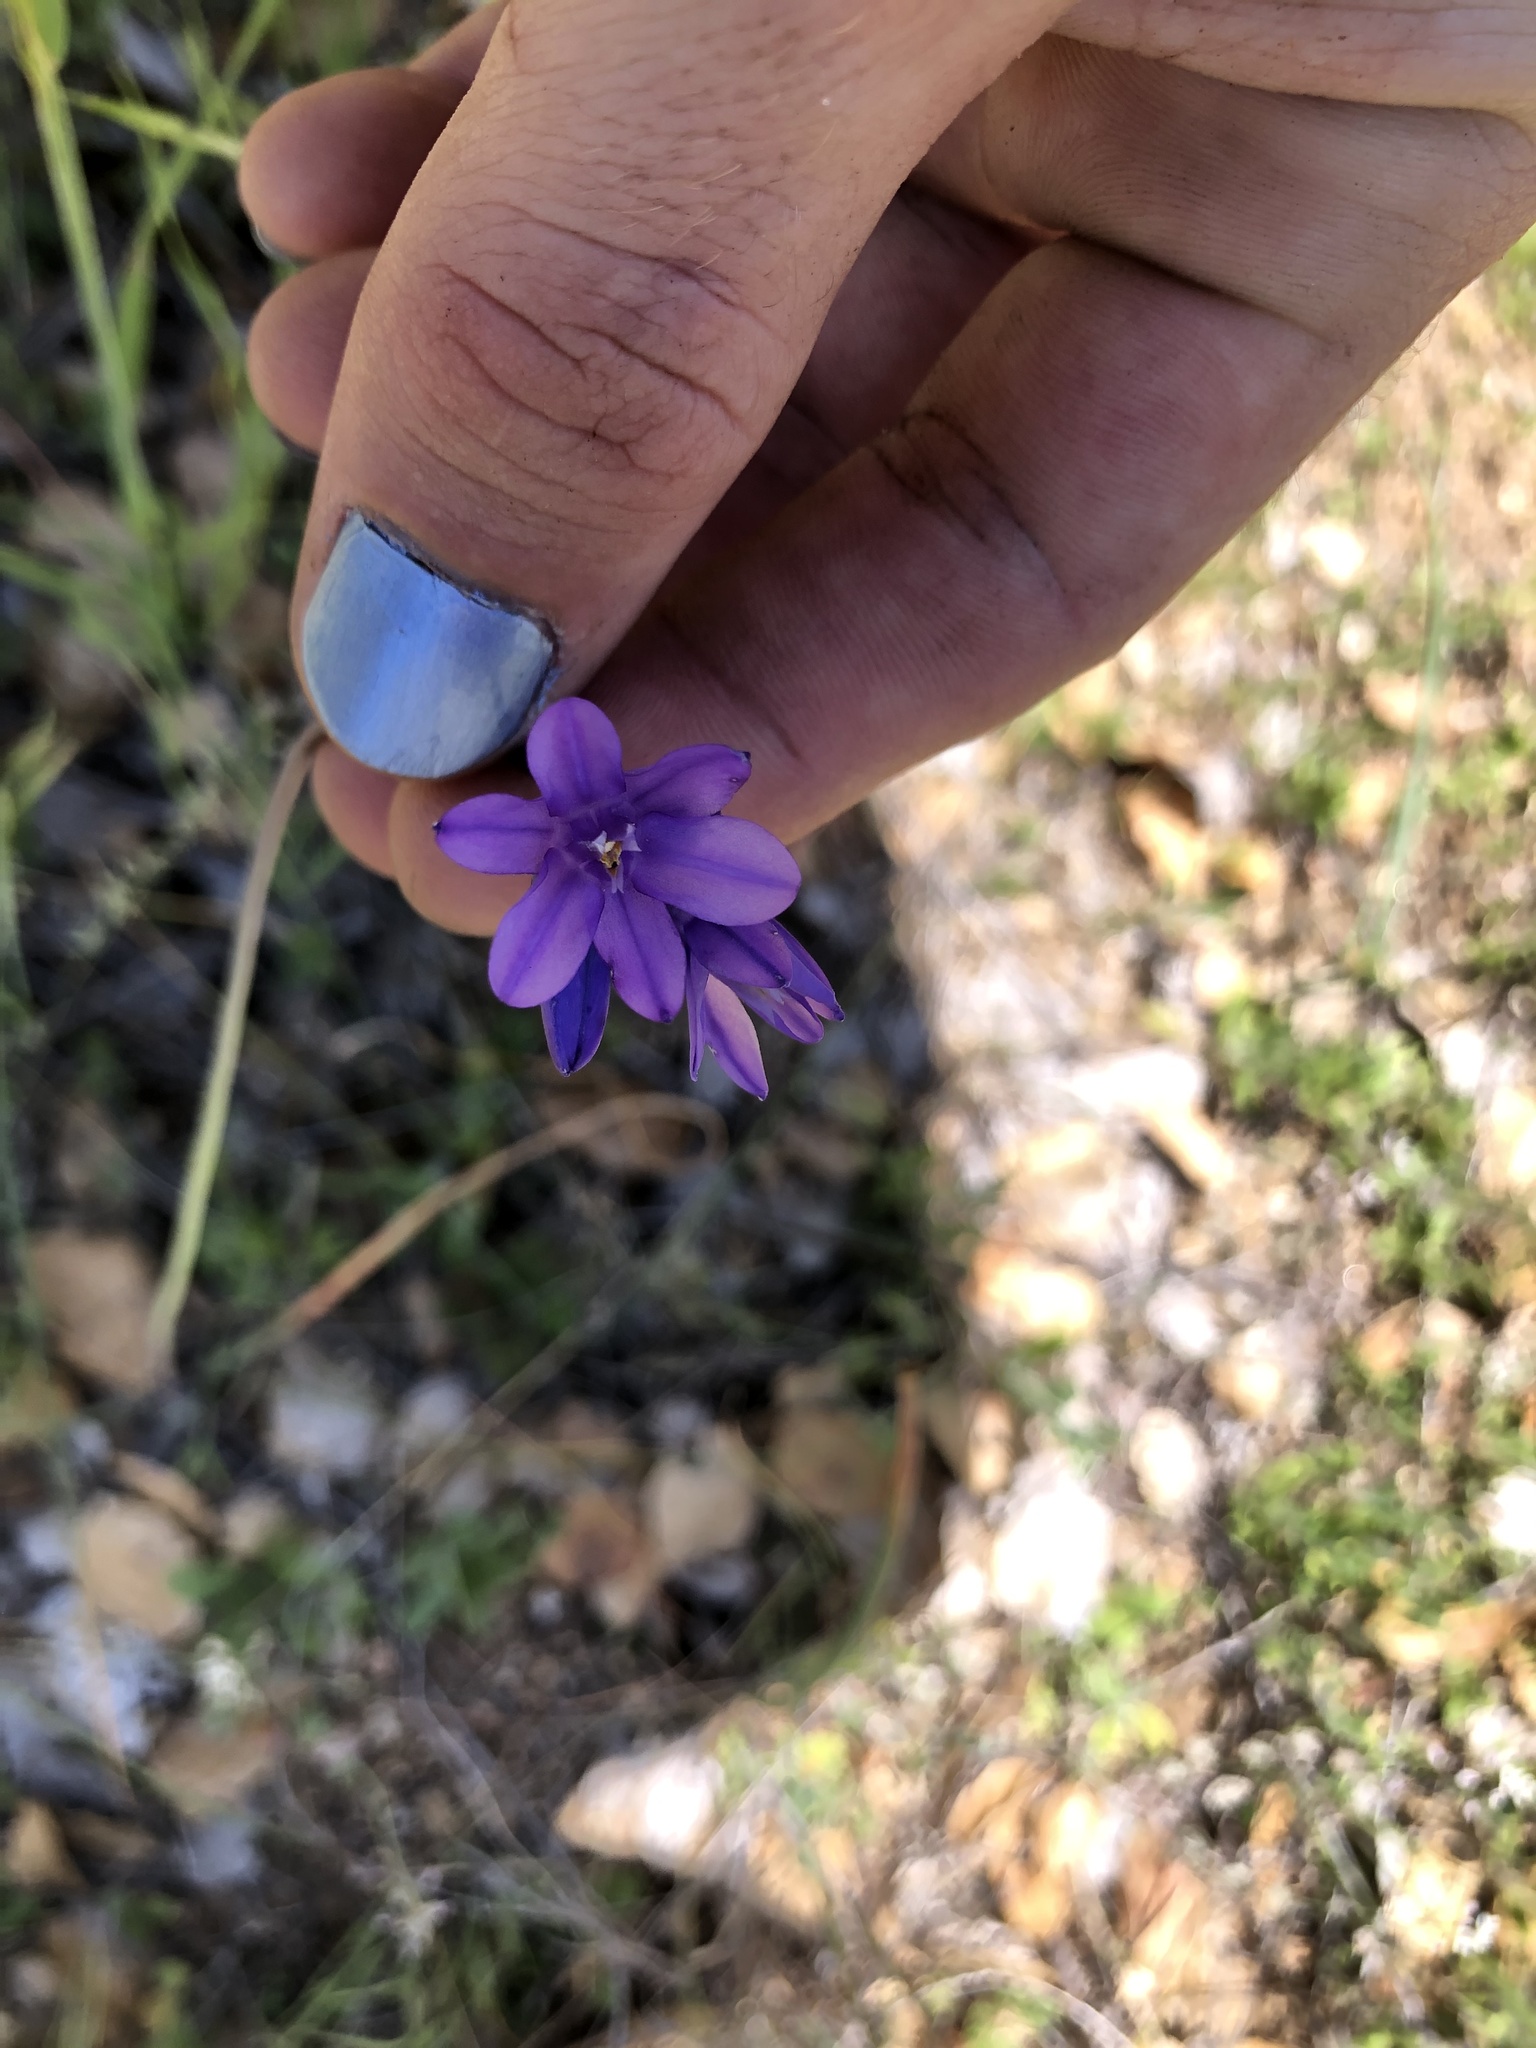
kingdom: Plantae
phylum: Tracheophyta
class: Liliopsida
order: Asparagales
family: Asparagaceae
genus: Dipterostemon
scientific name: Dipterostemon capitatus
